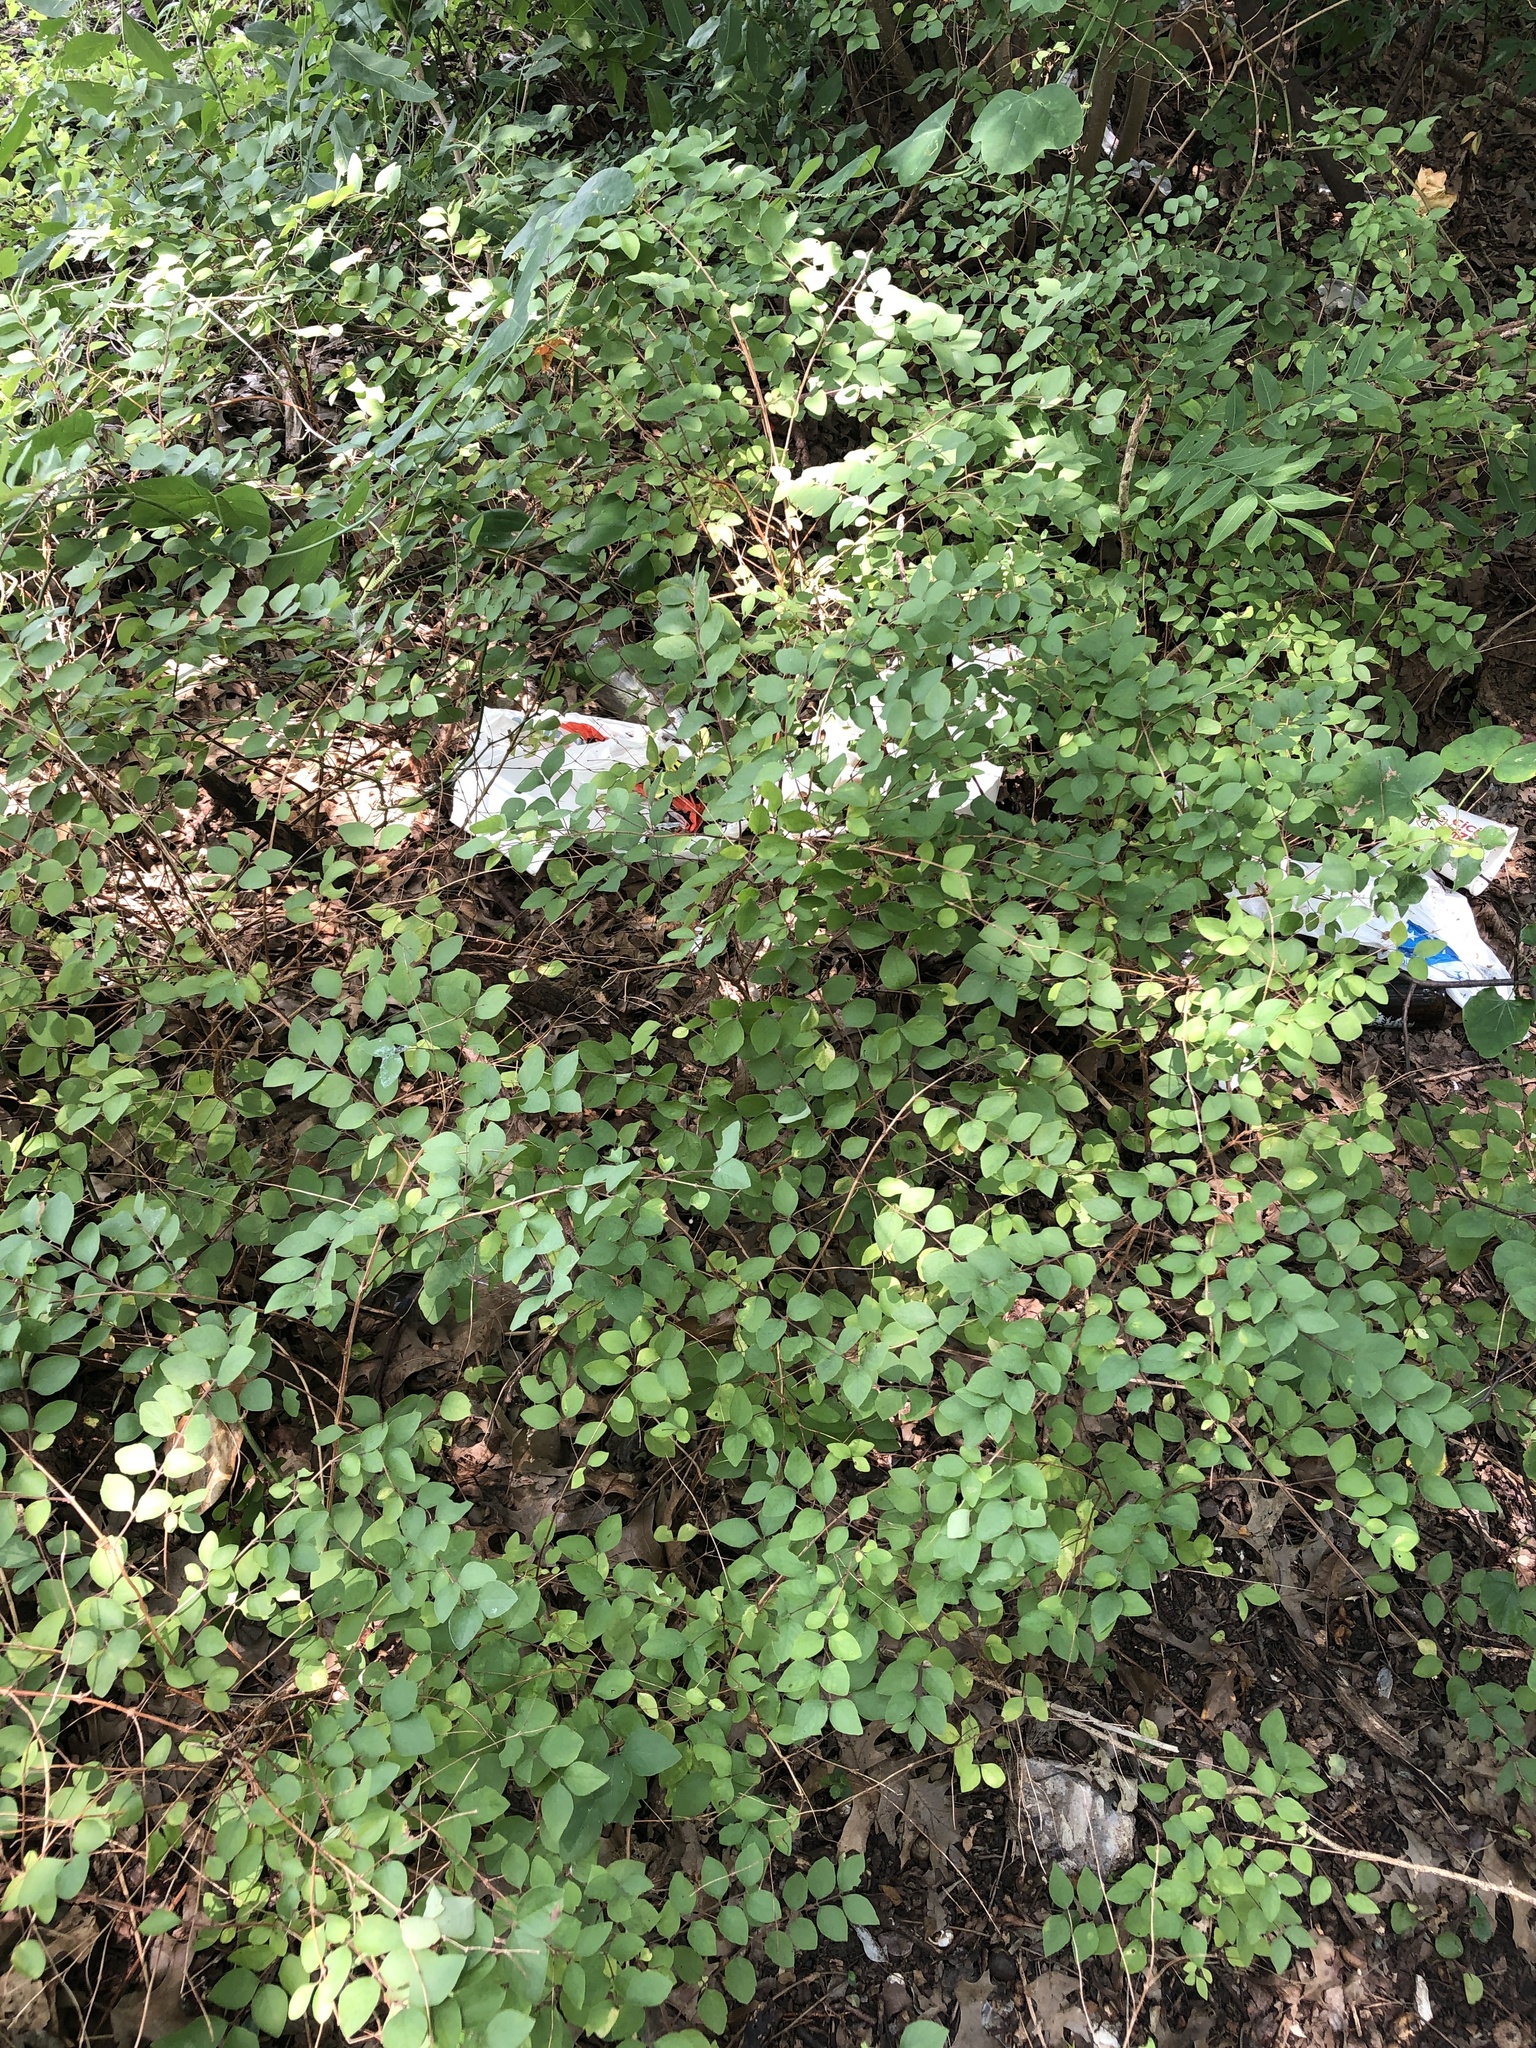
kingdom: Plantae
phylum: Tracheophyta
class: Magnoliopsida
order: Dipsacales
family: Caprifoliaceae
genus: Symphoricarpos
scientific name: Symphoricarpos orbiculatus
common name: Coralberry
